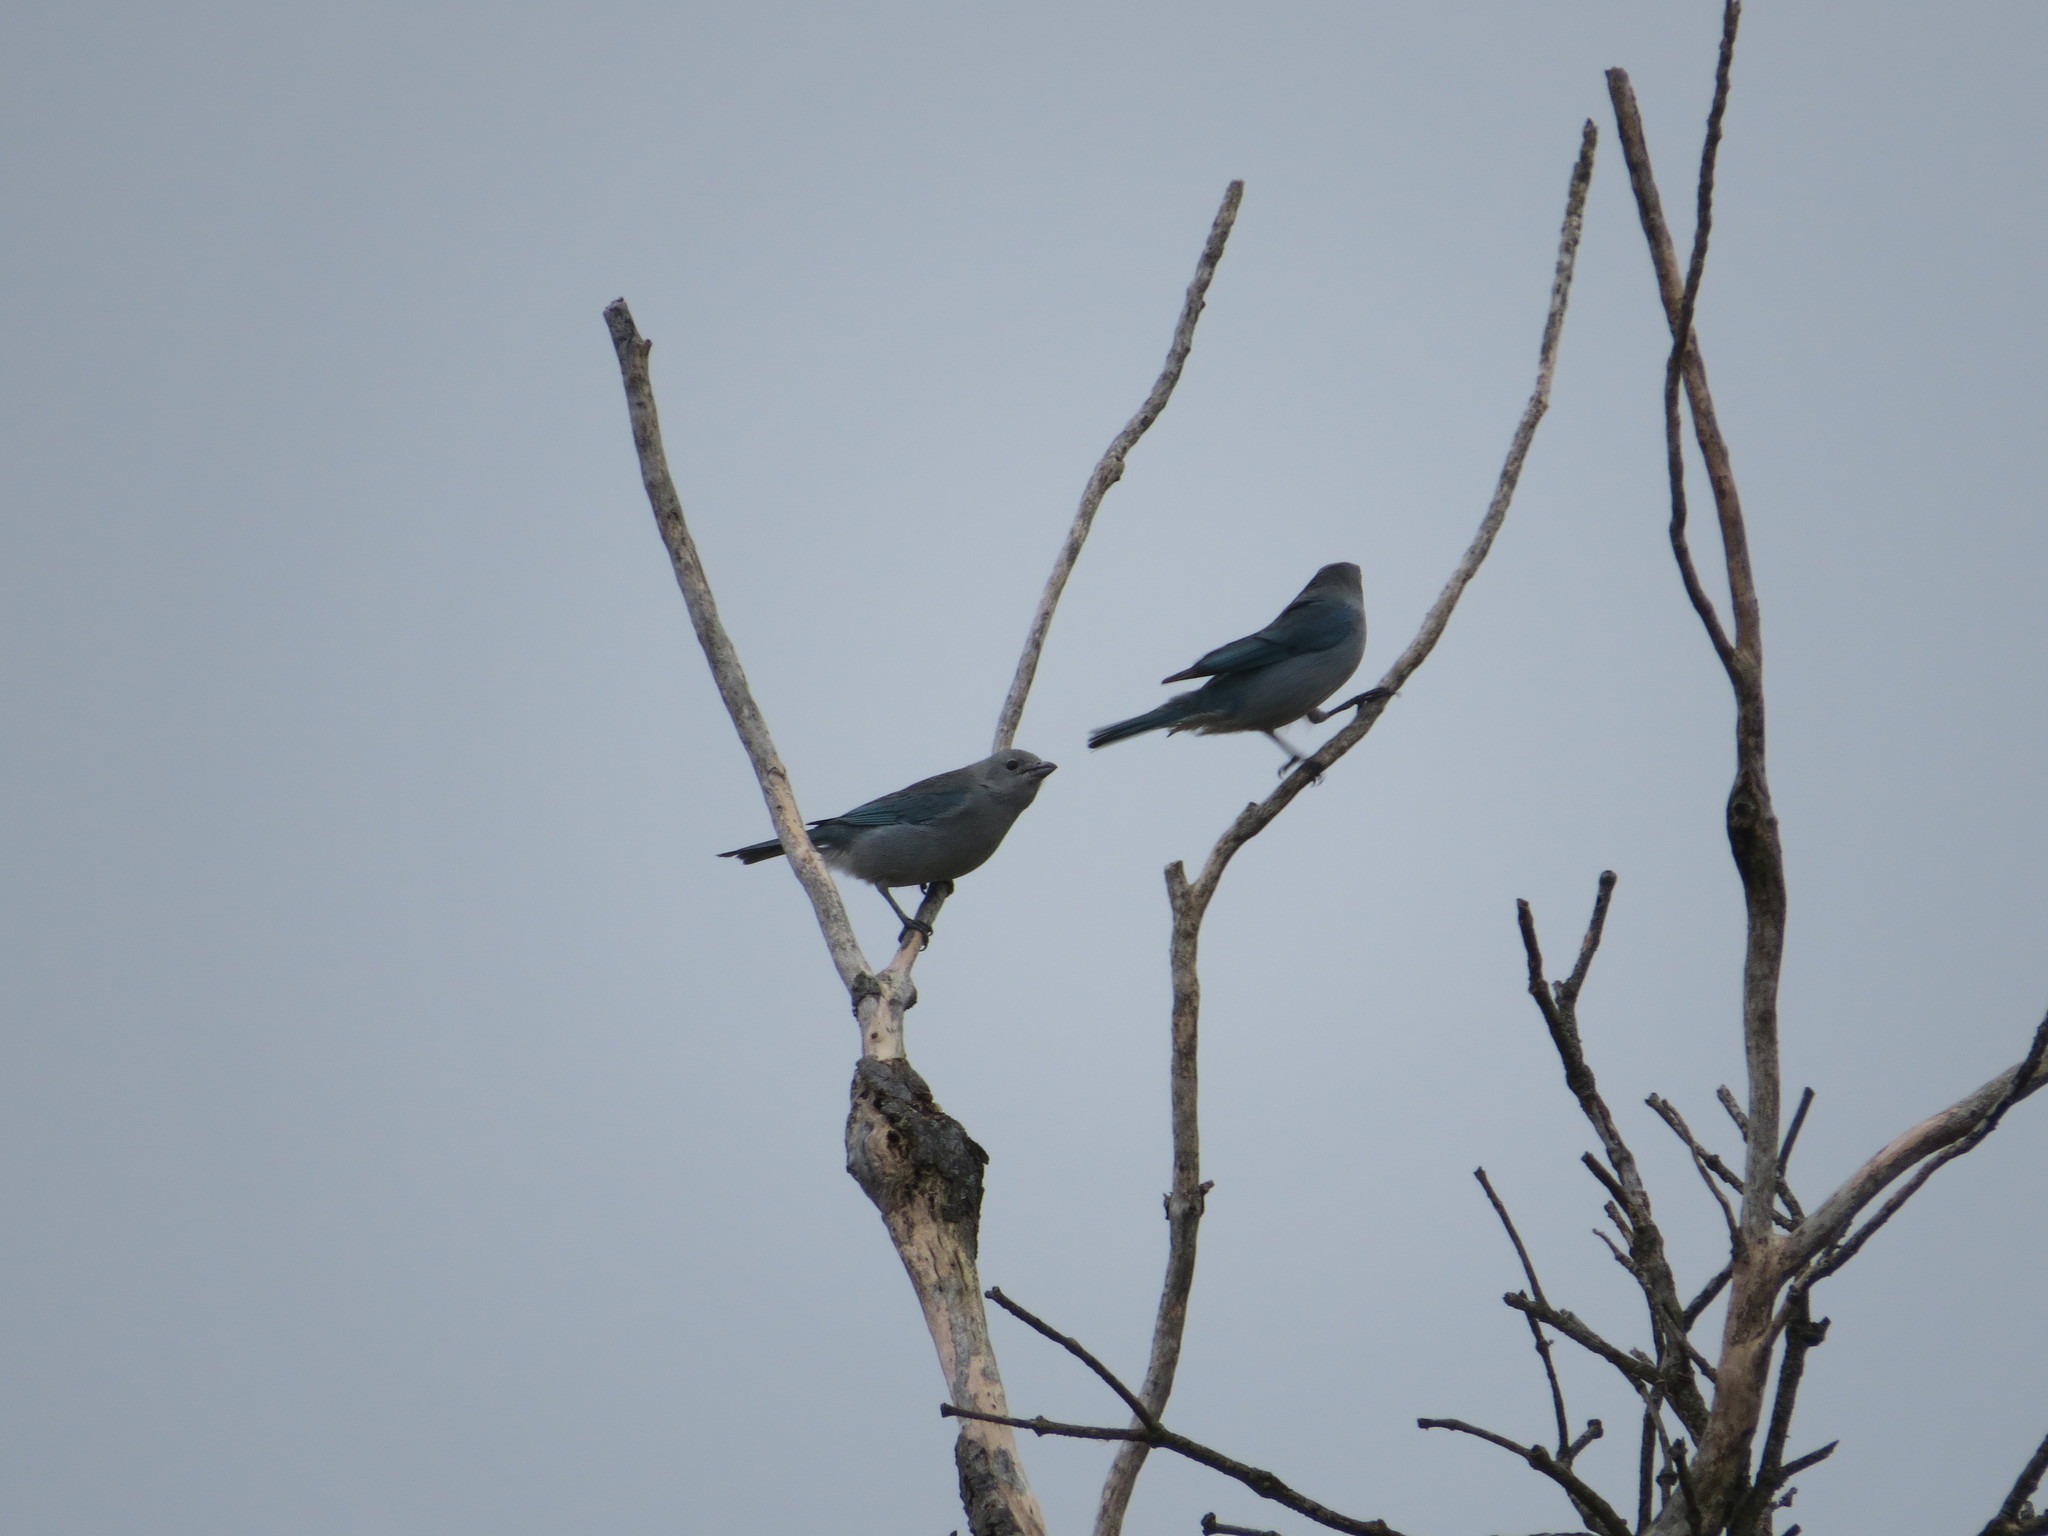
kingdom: Animalia
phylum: Chordata
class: Aves
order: Passeriformes
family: Thraupidae
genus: Thraupis
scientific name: Thraupis sayaca
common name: Sayaca tanager
